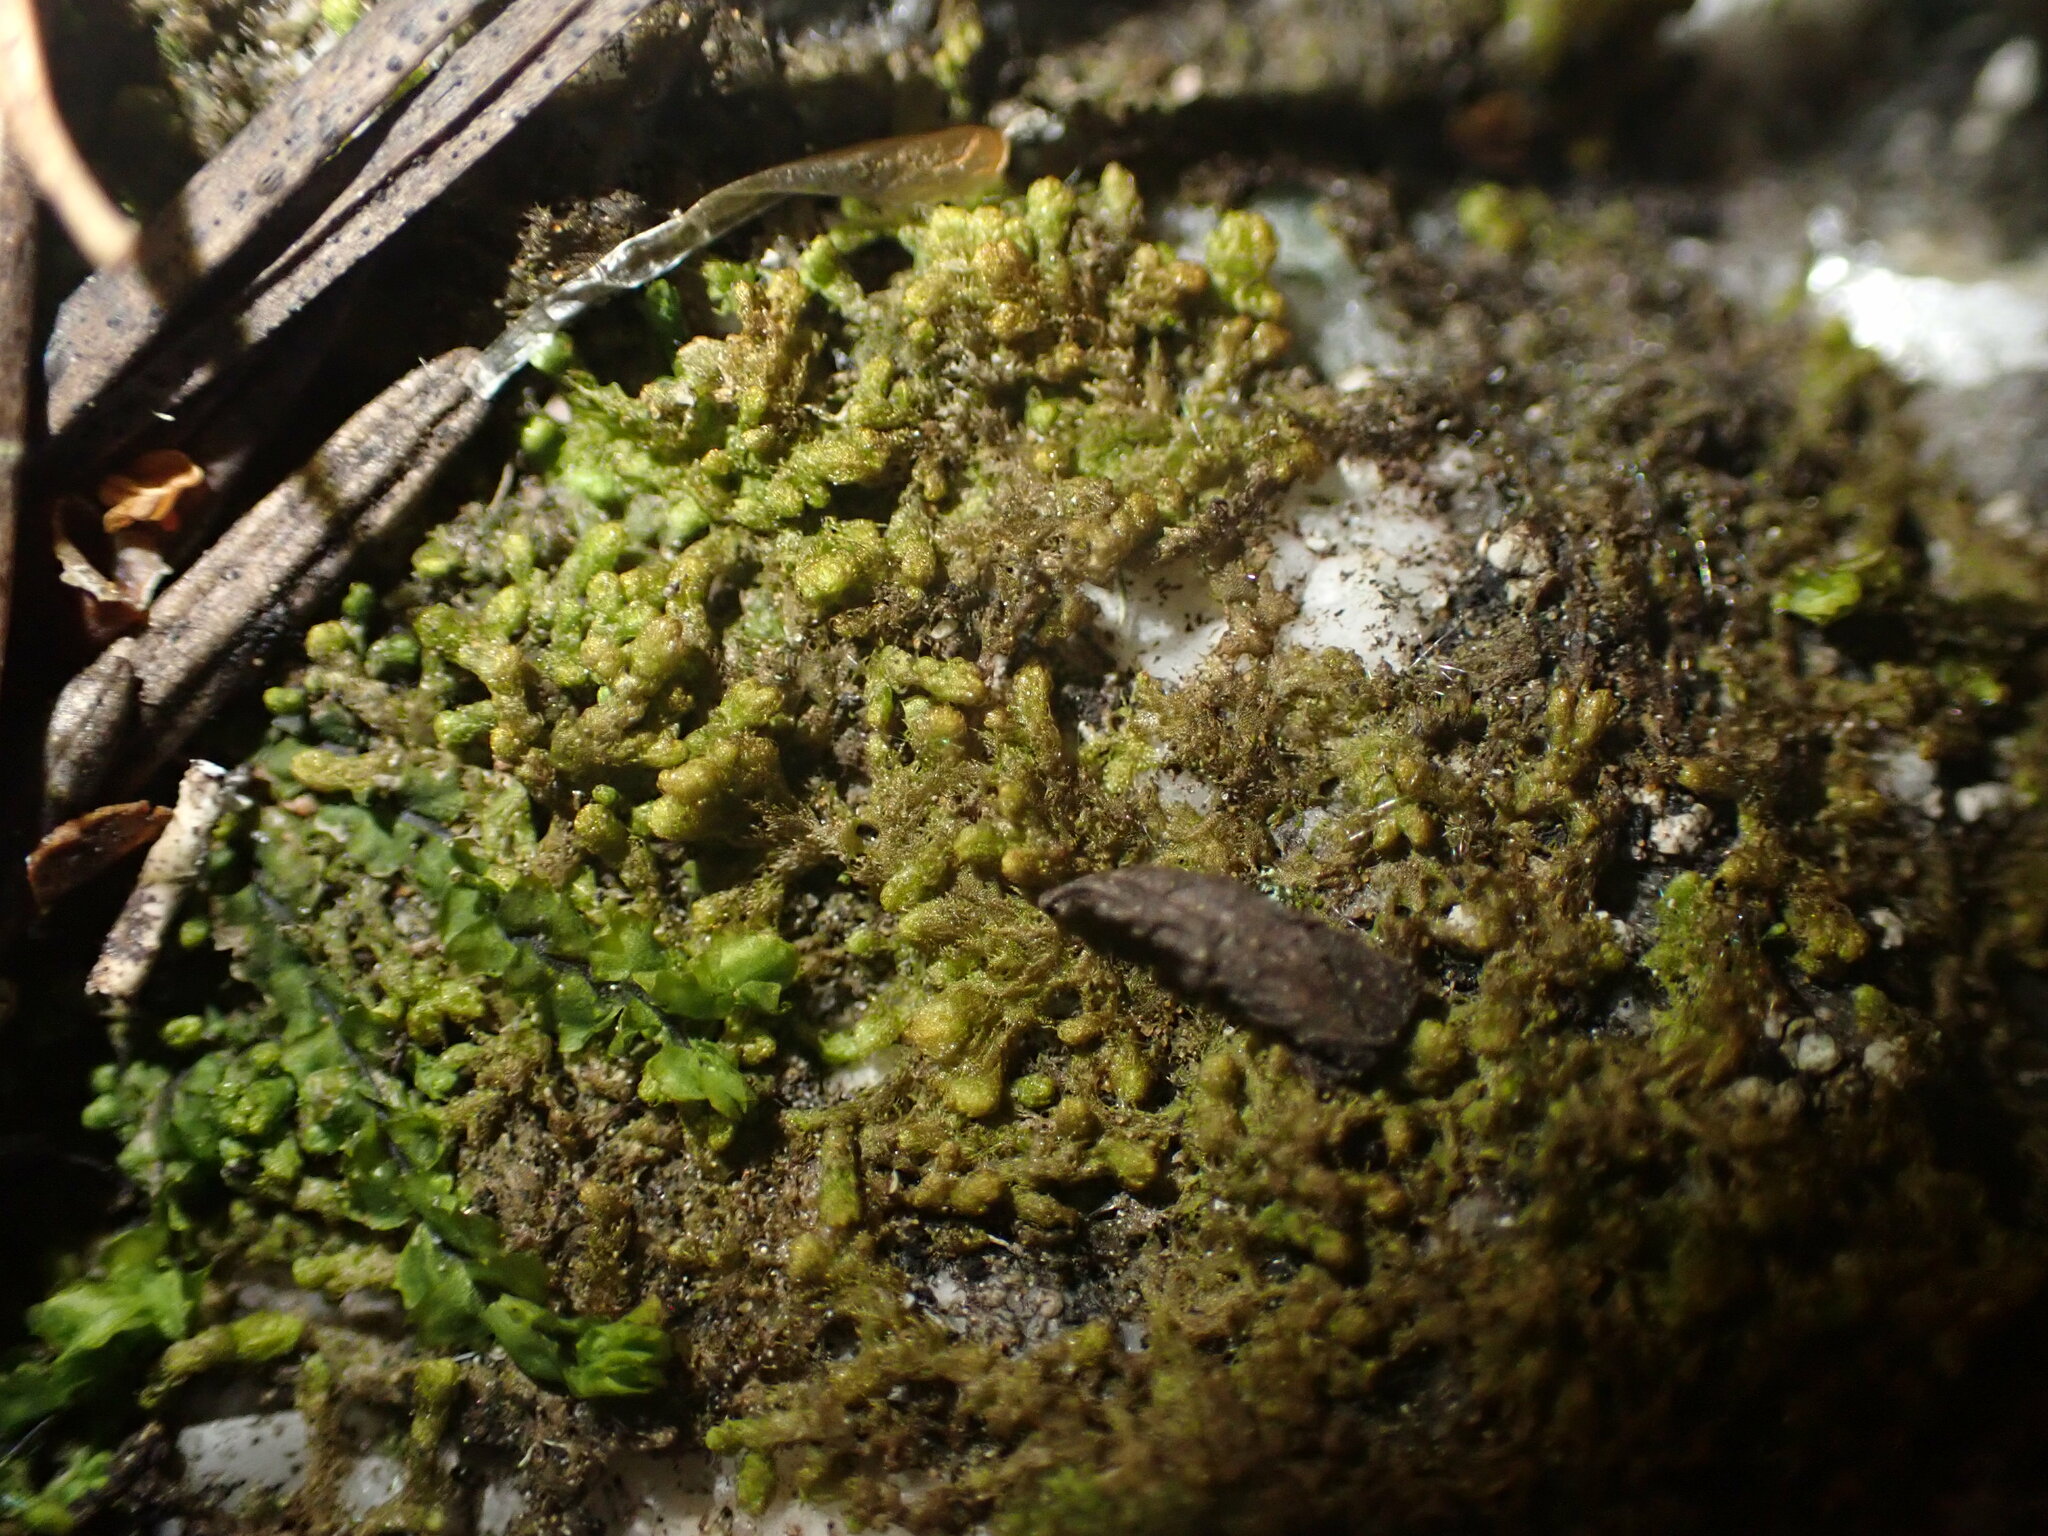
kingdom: Plantae
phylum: Marchantiophyta
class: Jungermanniopsida
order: Ptilidiales
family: Ptilidiaceae
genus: Ptilidium
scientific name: Ptilidium pulcherrimum
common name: Tree fringewort
